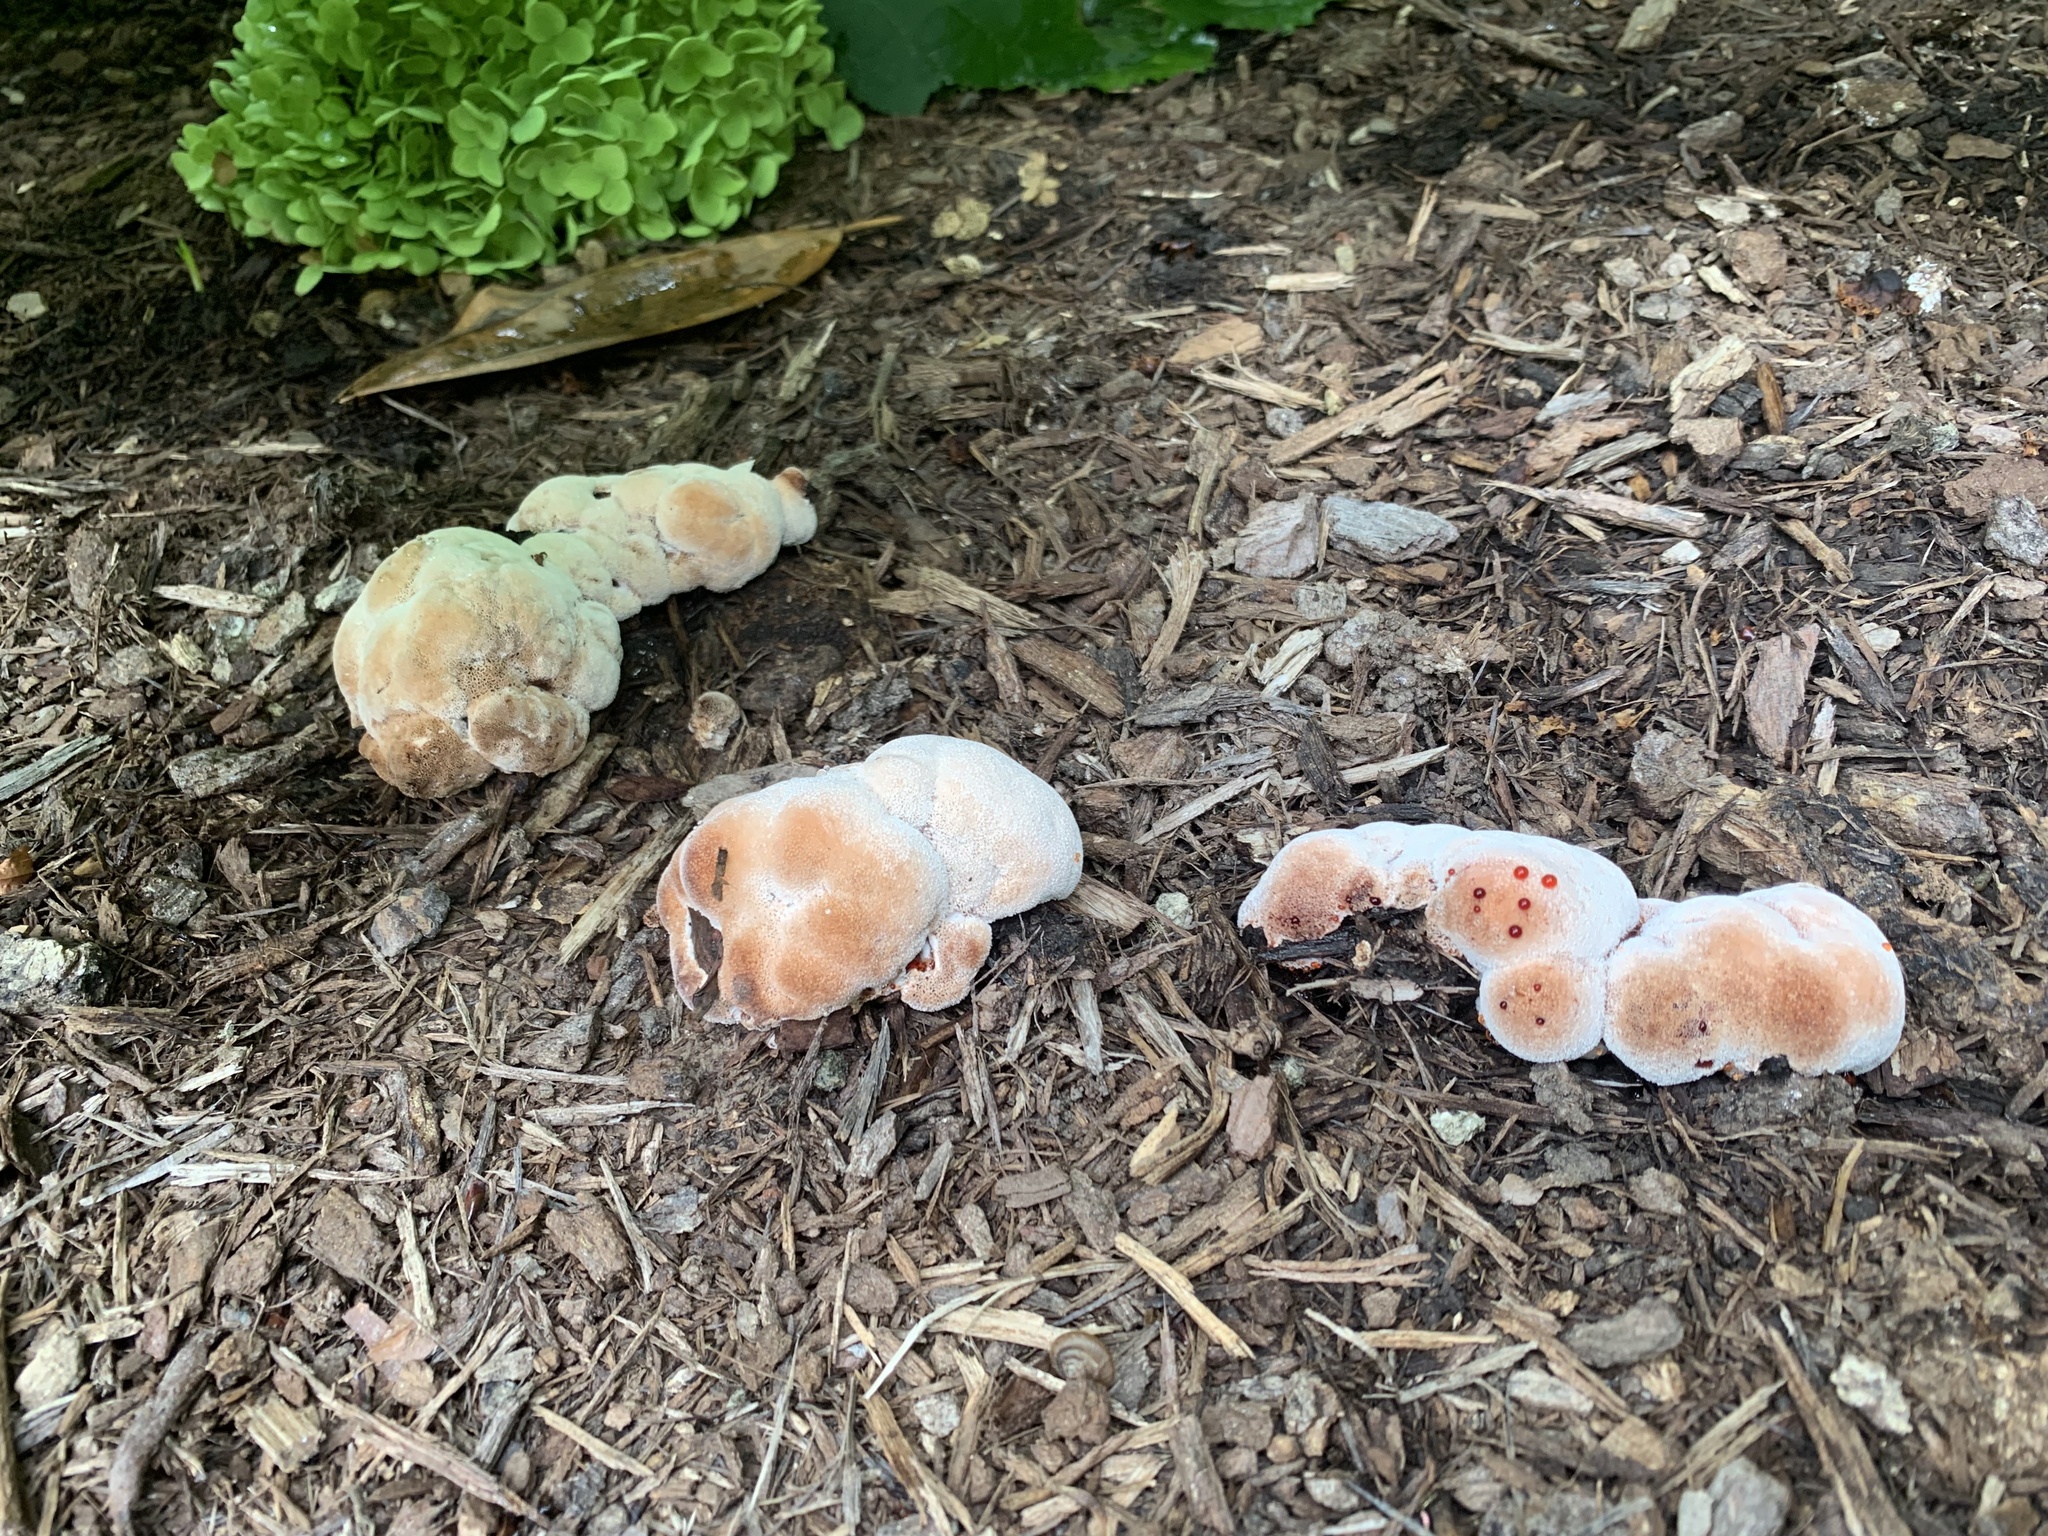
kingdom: Fungi
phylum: Basidiomycota
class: Agaricomycetes
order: Polyporales
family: Podoscyphaceae
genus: Abortiporus
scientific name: Abortiporus biennis
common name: Blushing rosette
